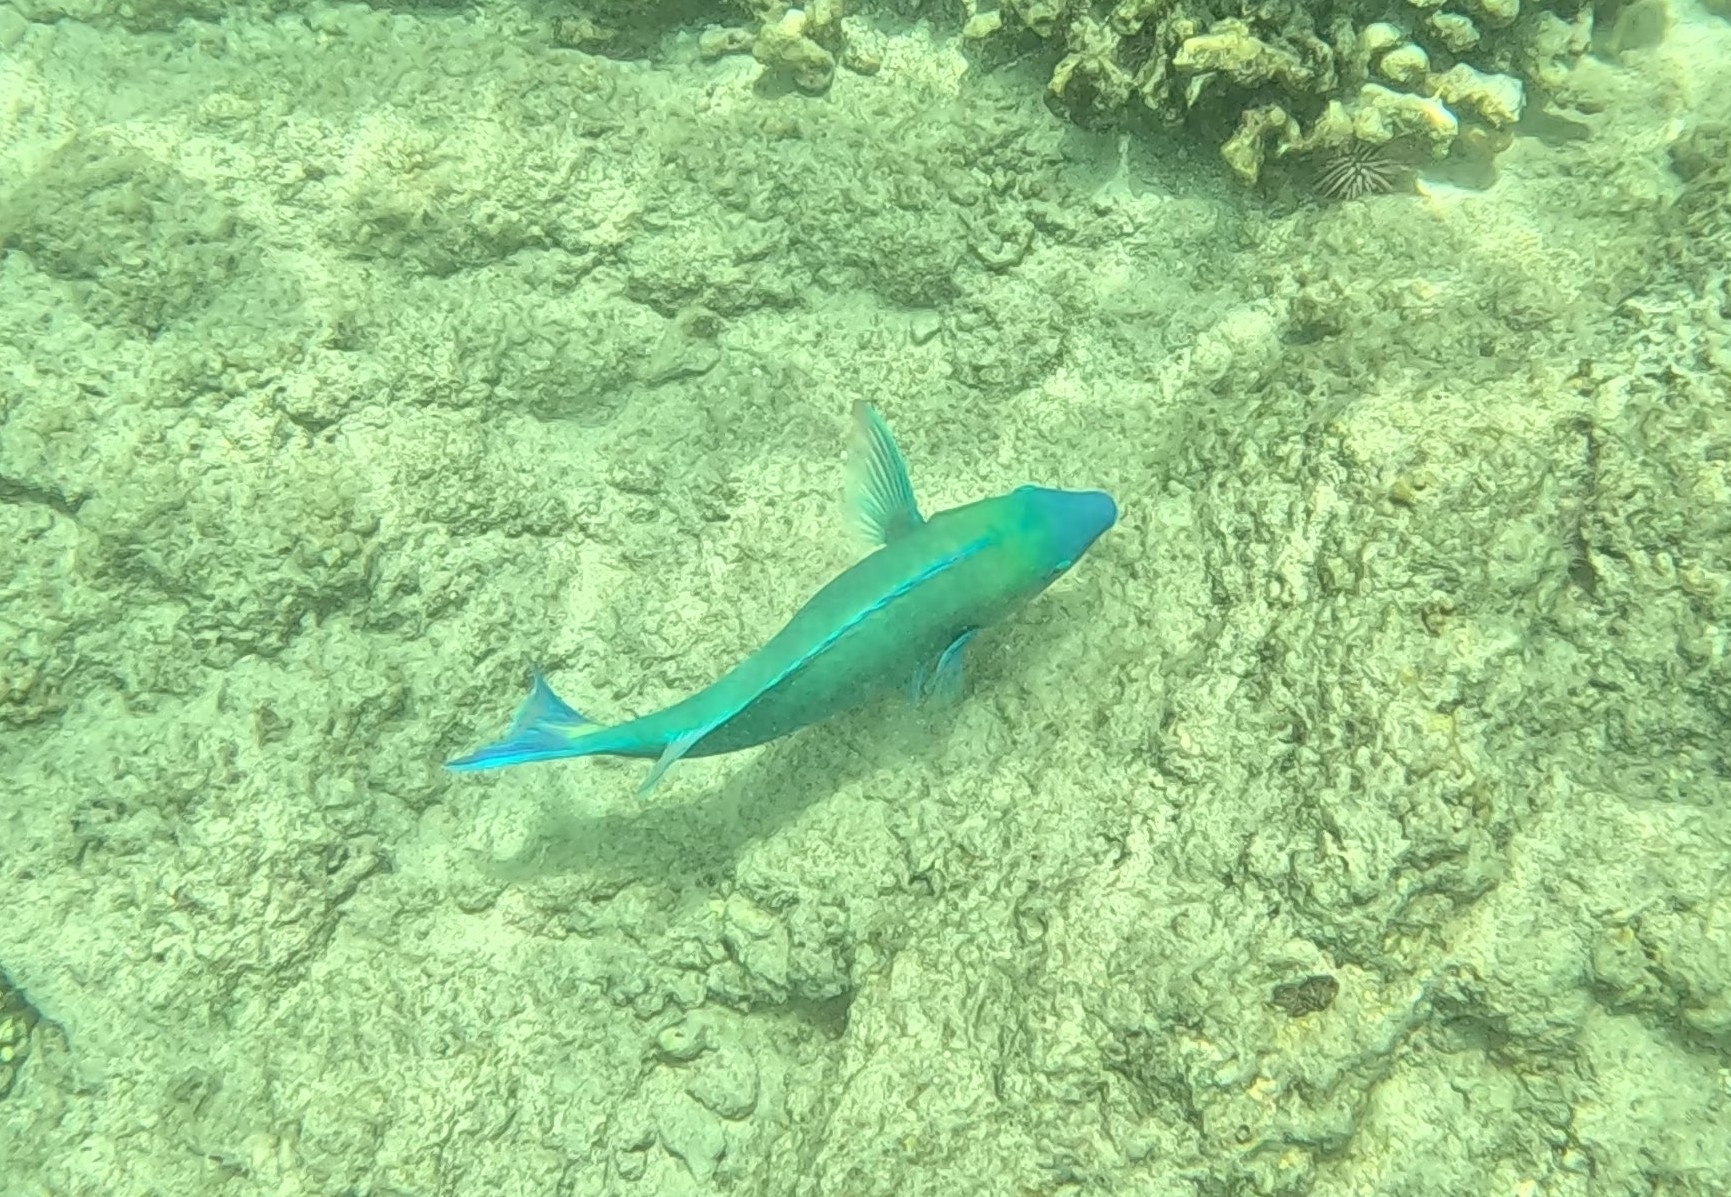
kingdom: Animalia
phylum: Chordata
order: Perciformes
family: Scaridae
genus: Scarus
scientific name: Scarus psittacus
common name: Palenose parrotfish
